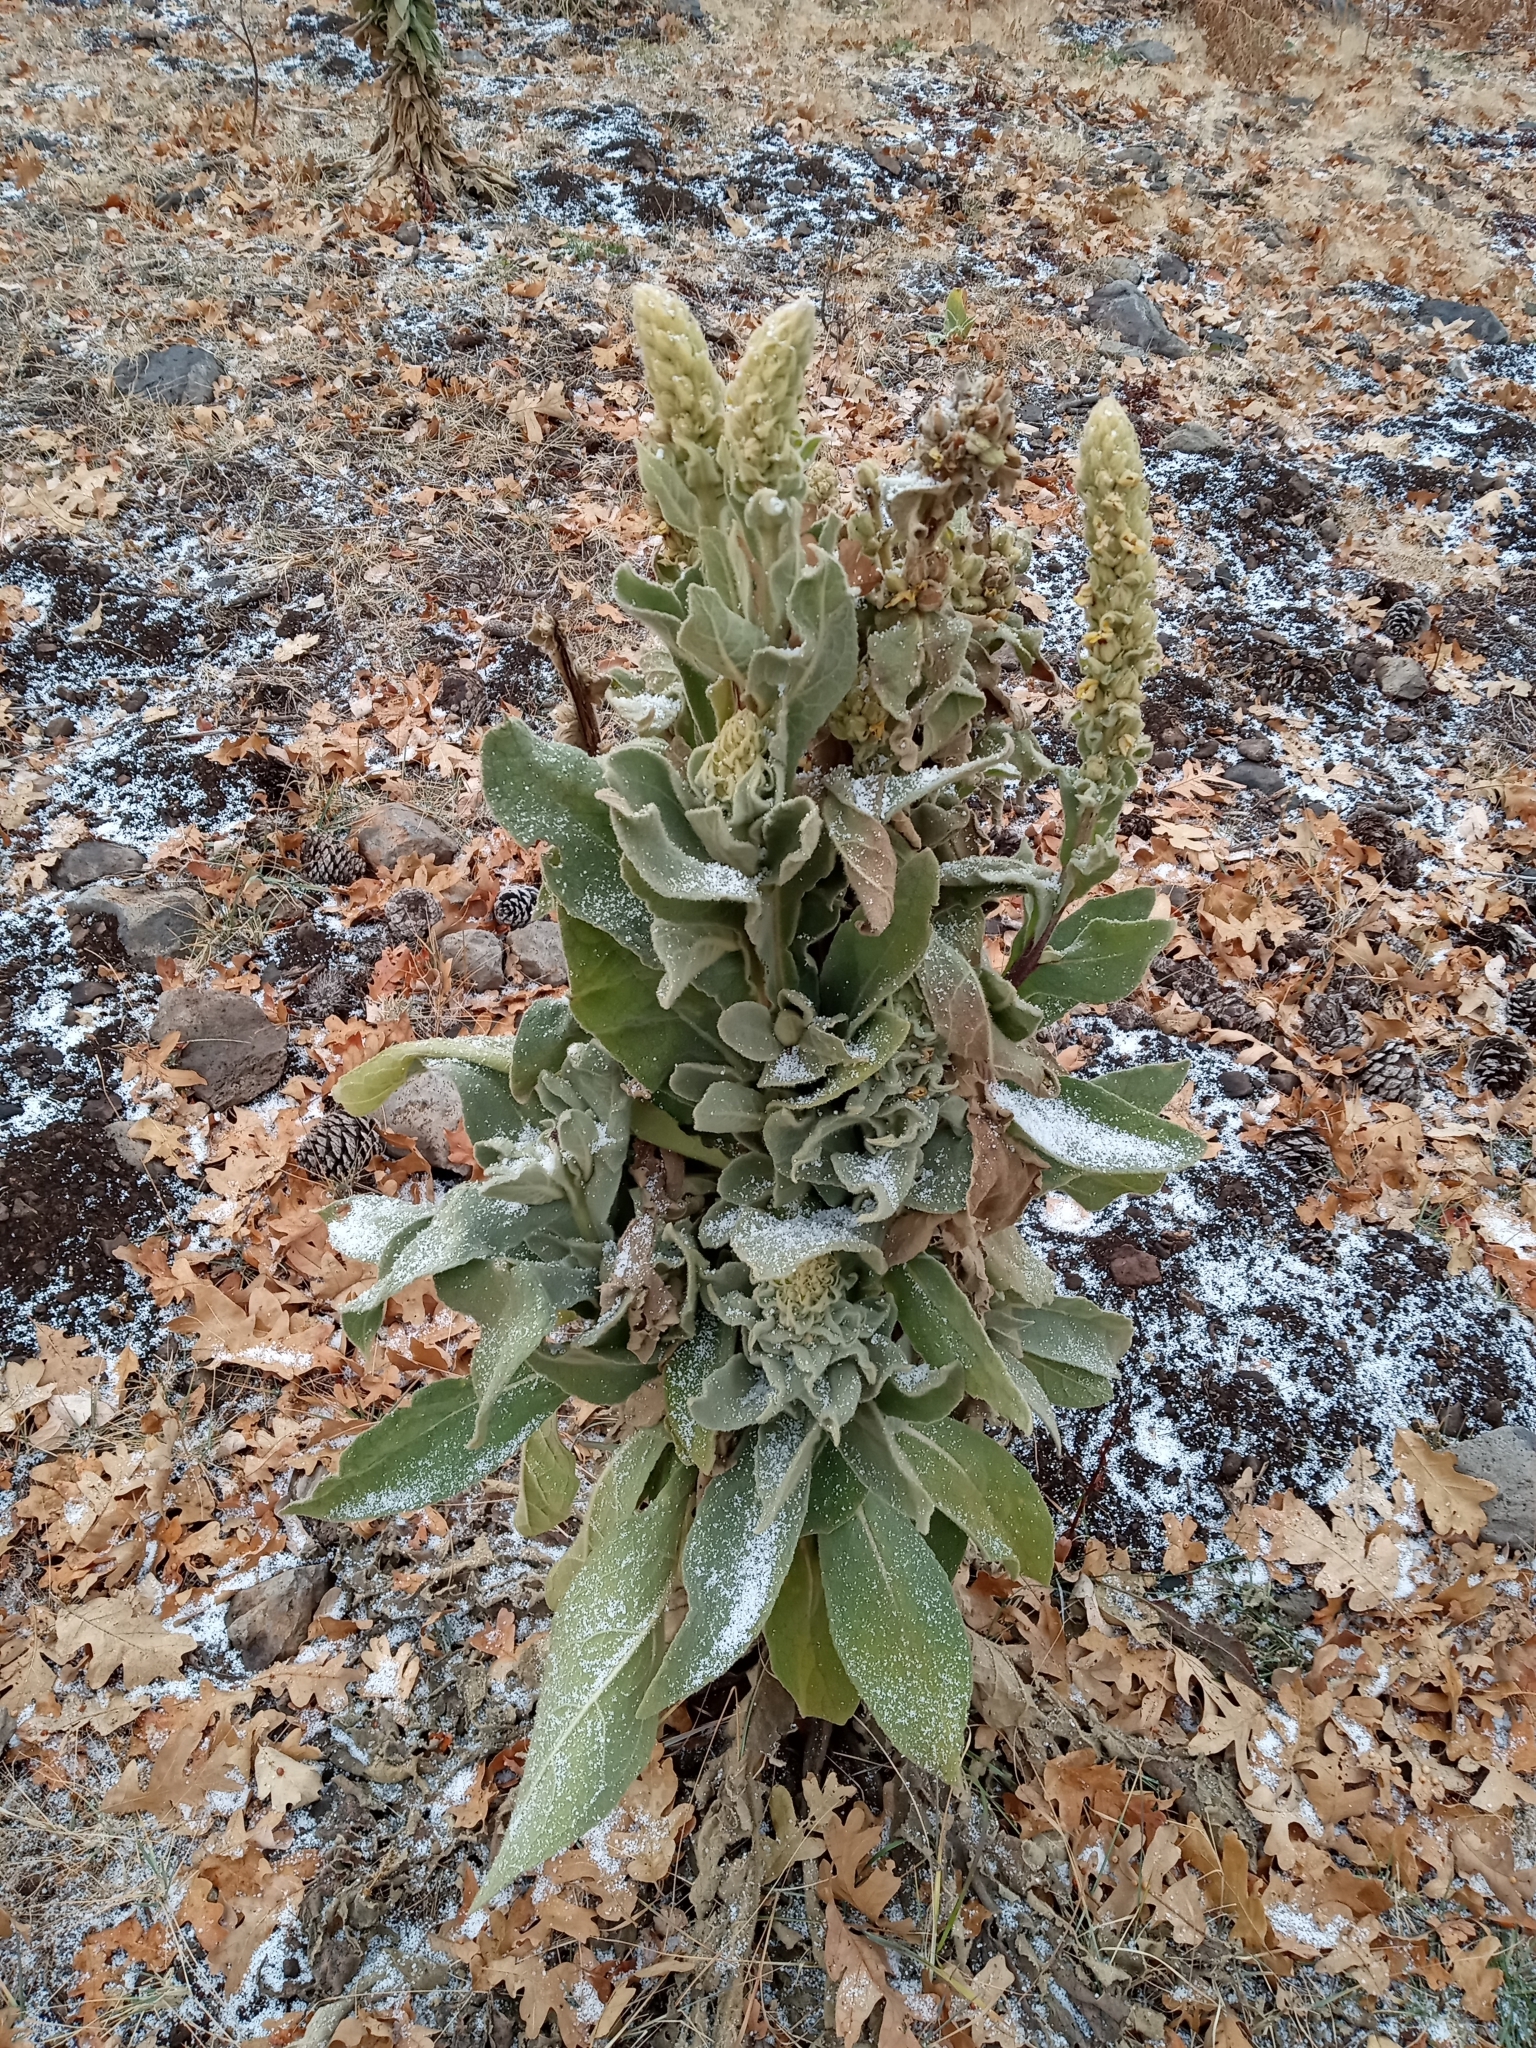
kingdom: Plantae
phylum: Tracheophyta
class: Magnoliopsida
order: Lamiales
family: Scrophulariaceae
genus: Verbascum
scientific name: Verbascum thapsus
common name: Common mullein
